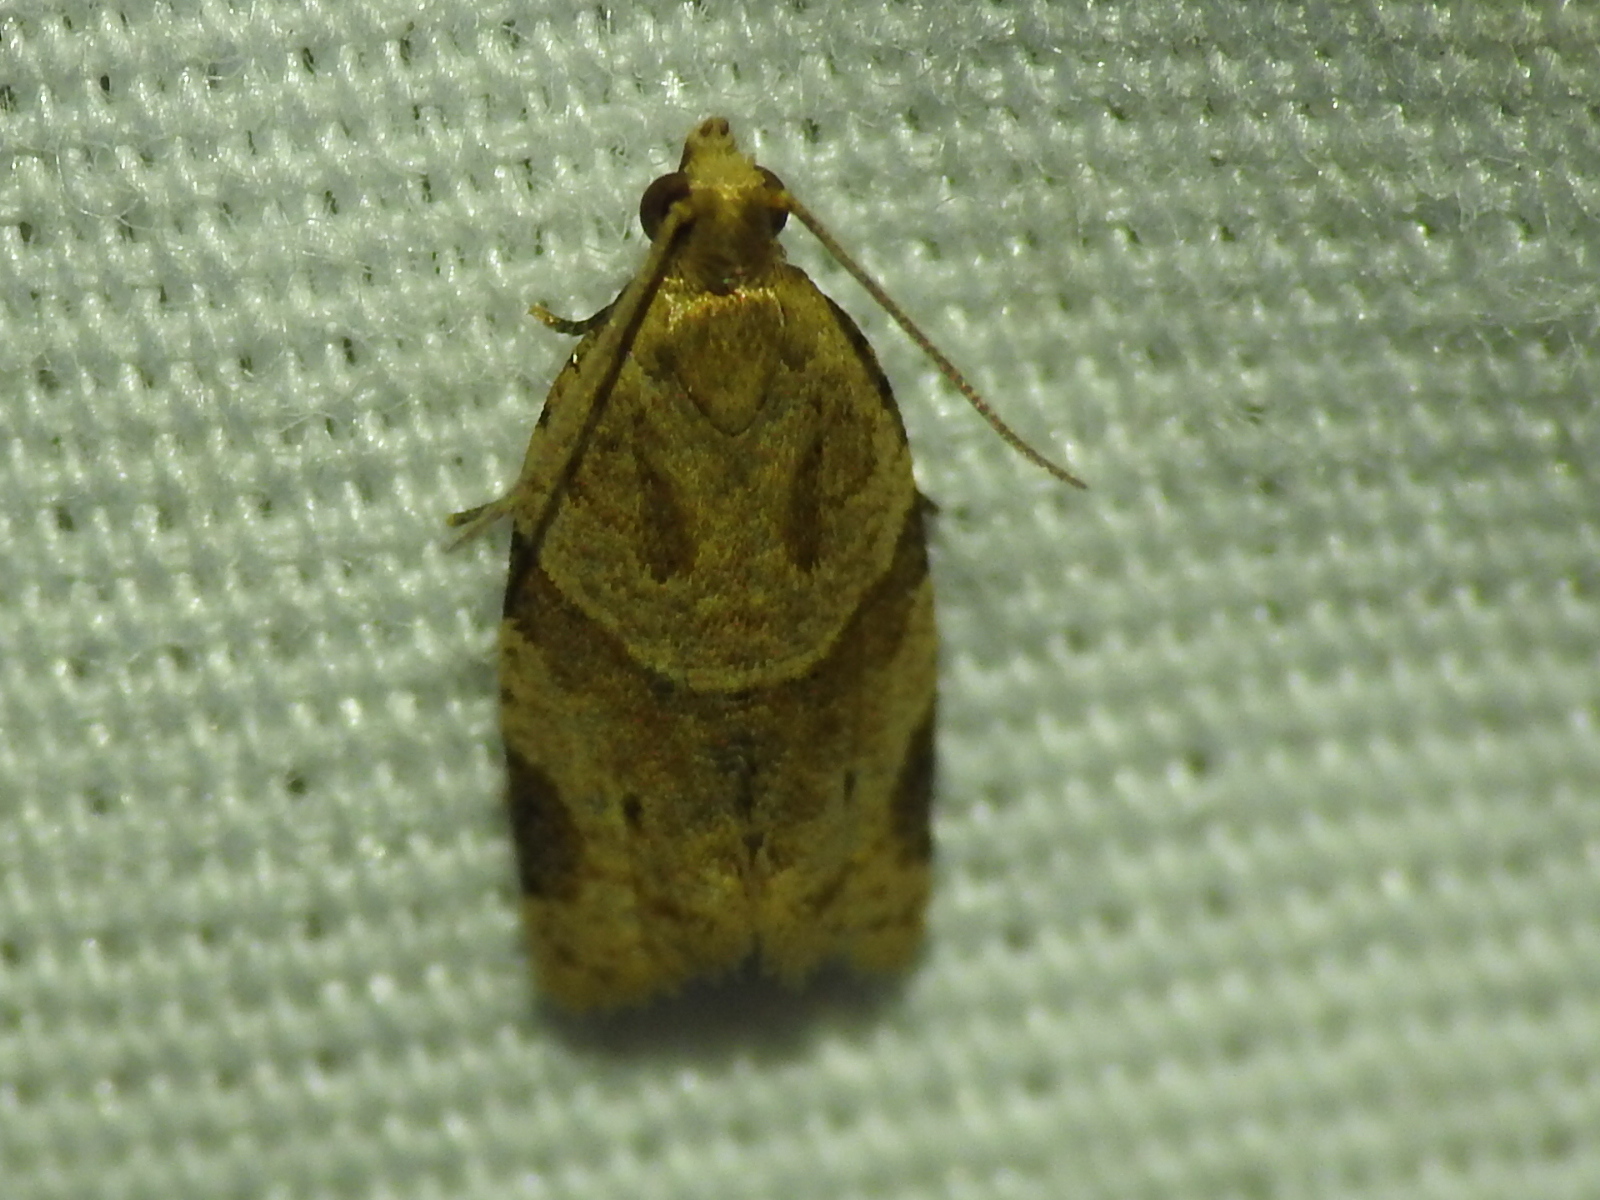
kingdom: Animalia
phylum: Arthropoda
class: Insecta
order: Lepidoptera
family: Tortricidae
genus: Clepsis
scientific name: Clepsis peritana
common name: Garden tortrix
